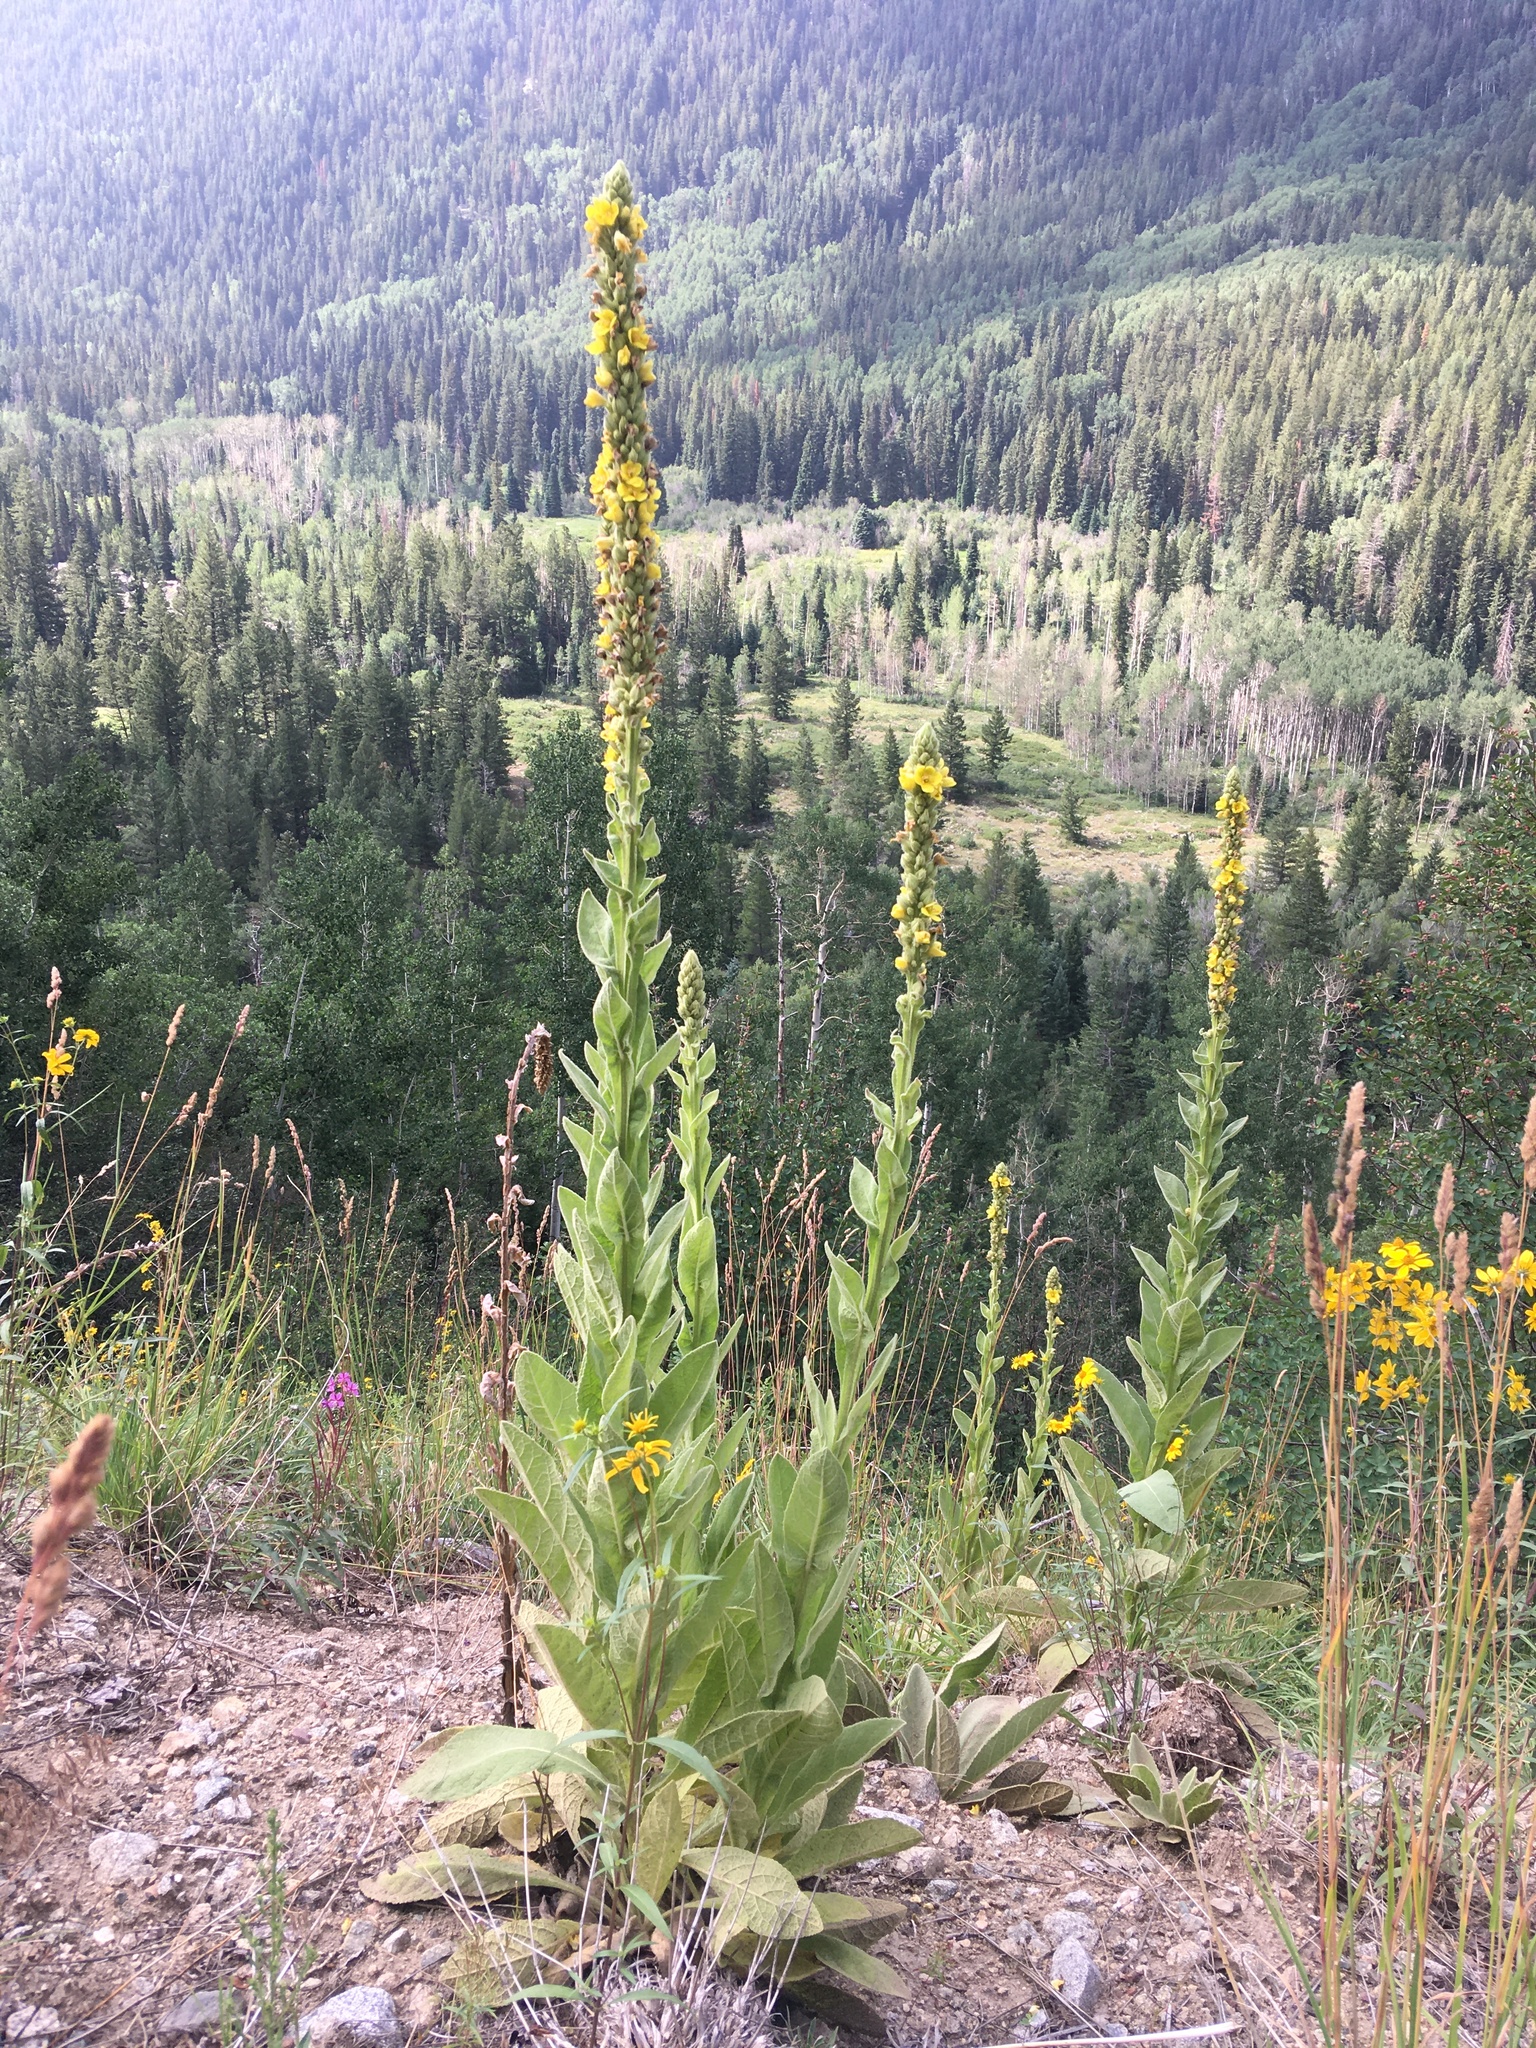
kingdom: Plantae
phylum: Tracheophyta
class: Magnoliopsida
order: Lamiales
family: Scrophulariaceae
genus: Verbascum
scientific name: Verbascum thapsus
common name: Common mullein
